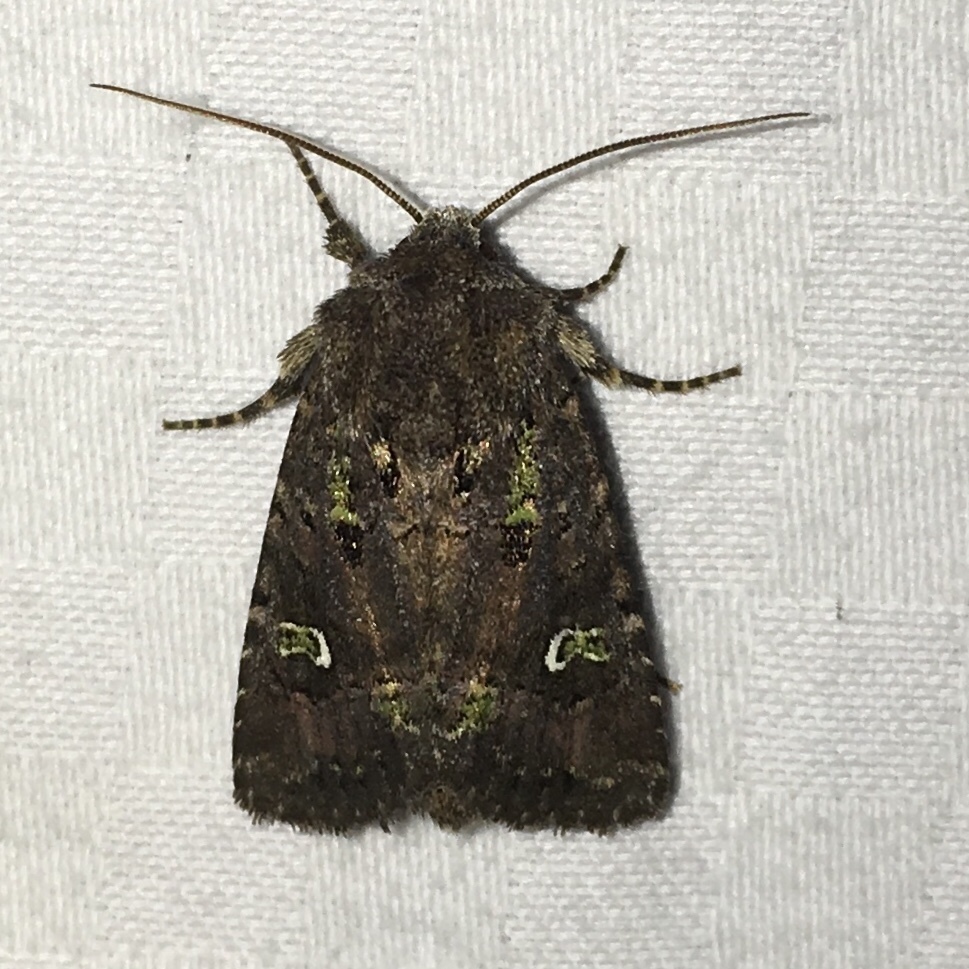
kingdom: Animalia
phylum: Arthropoda
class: Insecta
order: Lepidoptera
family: Noctuidae
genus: Lacinipolia
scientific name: Lacinipolia renigera
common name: Kidney-spotted minor
